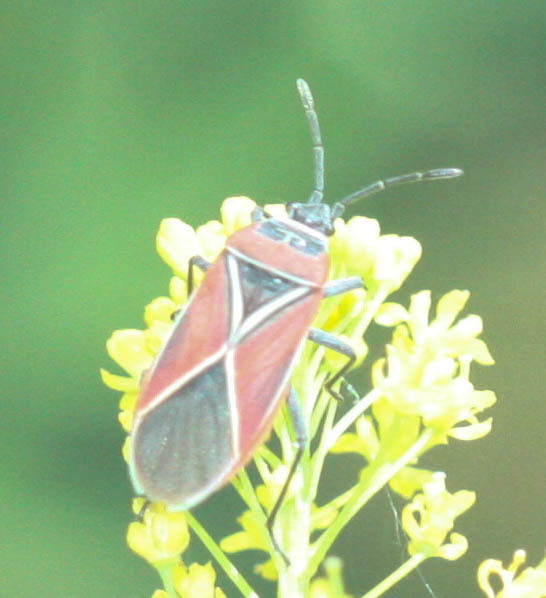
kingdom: Animalia
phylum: Arthropoda
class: Insecta
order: Hemiptera
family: Lygaeidae
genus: Neacoryphus
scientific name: Neacoryphus bicrucis
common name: Lygaeid bug
